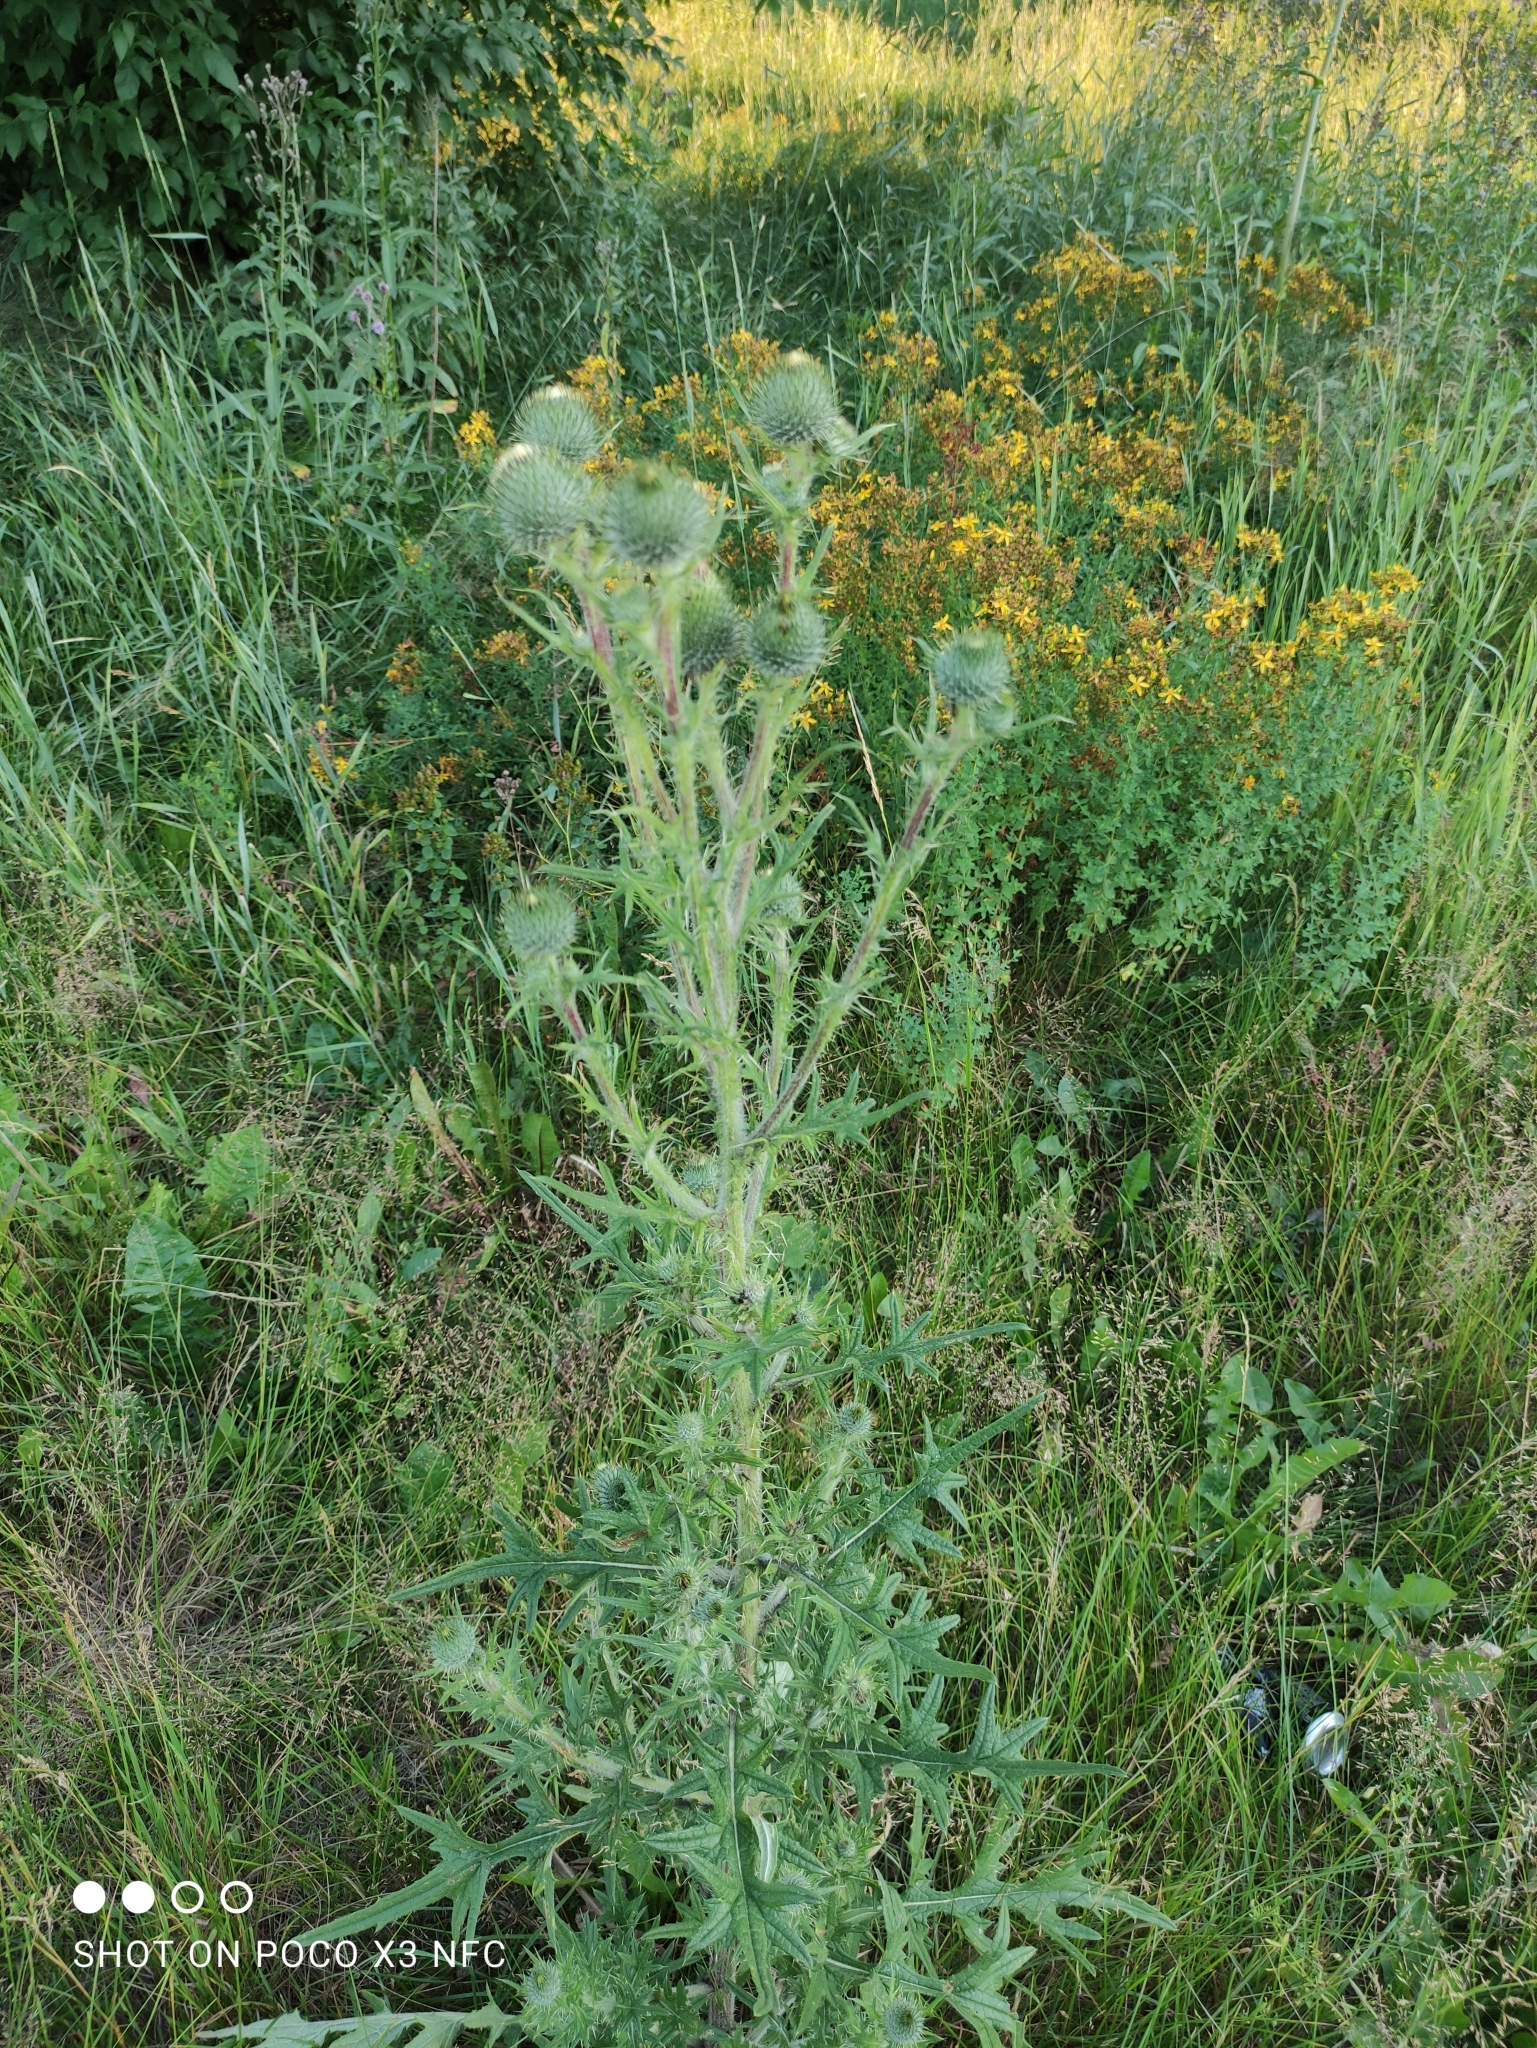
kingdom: Plantae
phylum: Tracheophyta
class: Magnoliopsida
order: Asterales
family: Asteraceae
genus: Cirsium
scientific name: Cirsium vulgare
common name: Bull thistle
